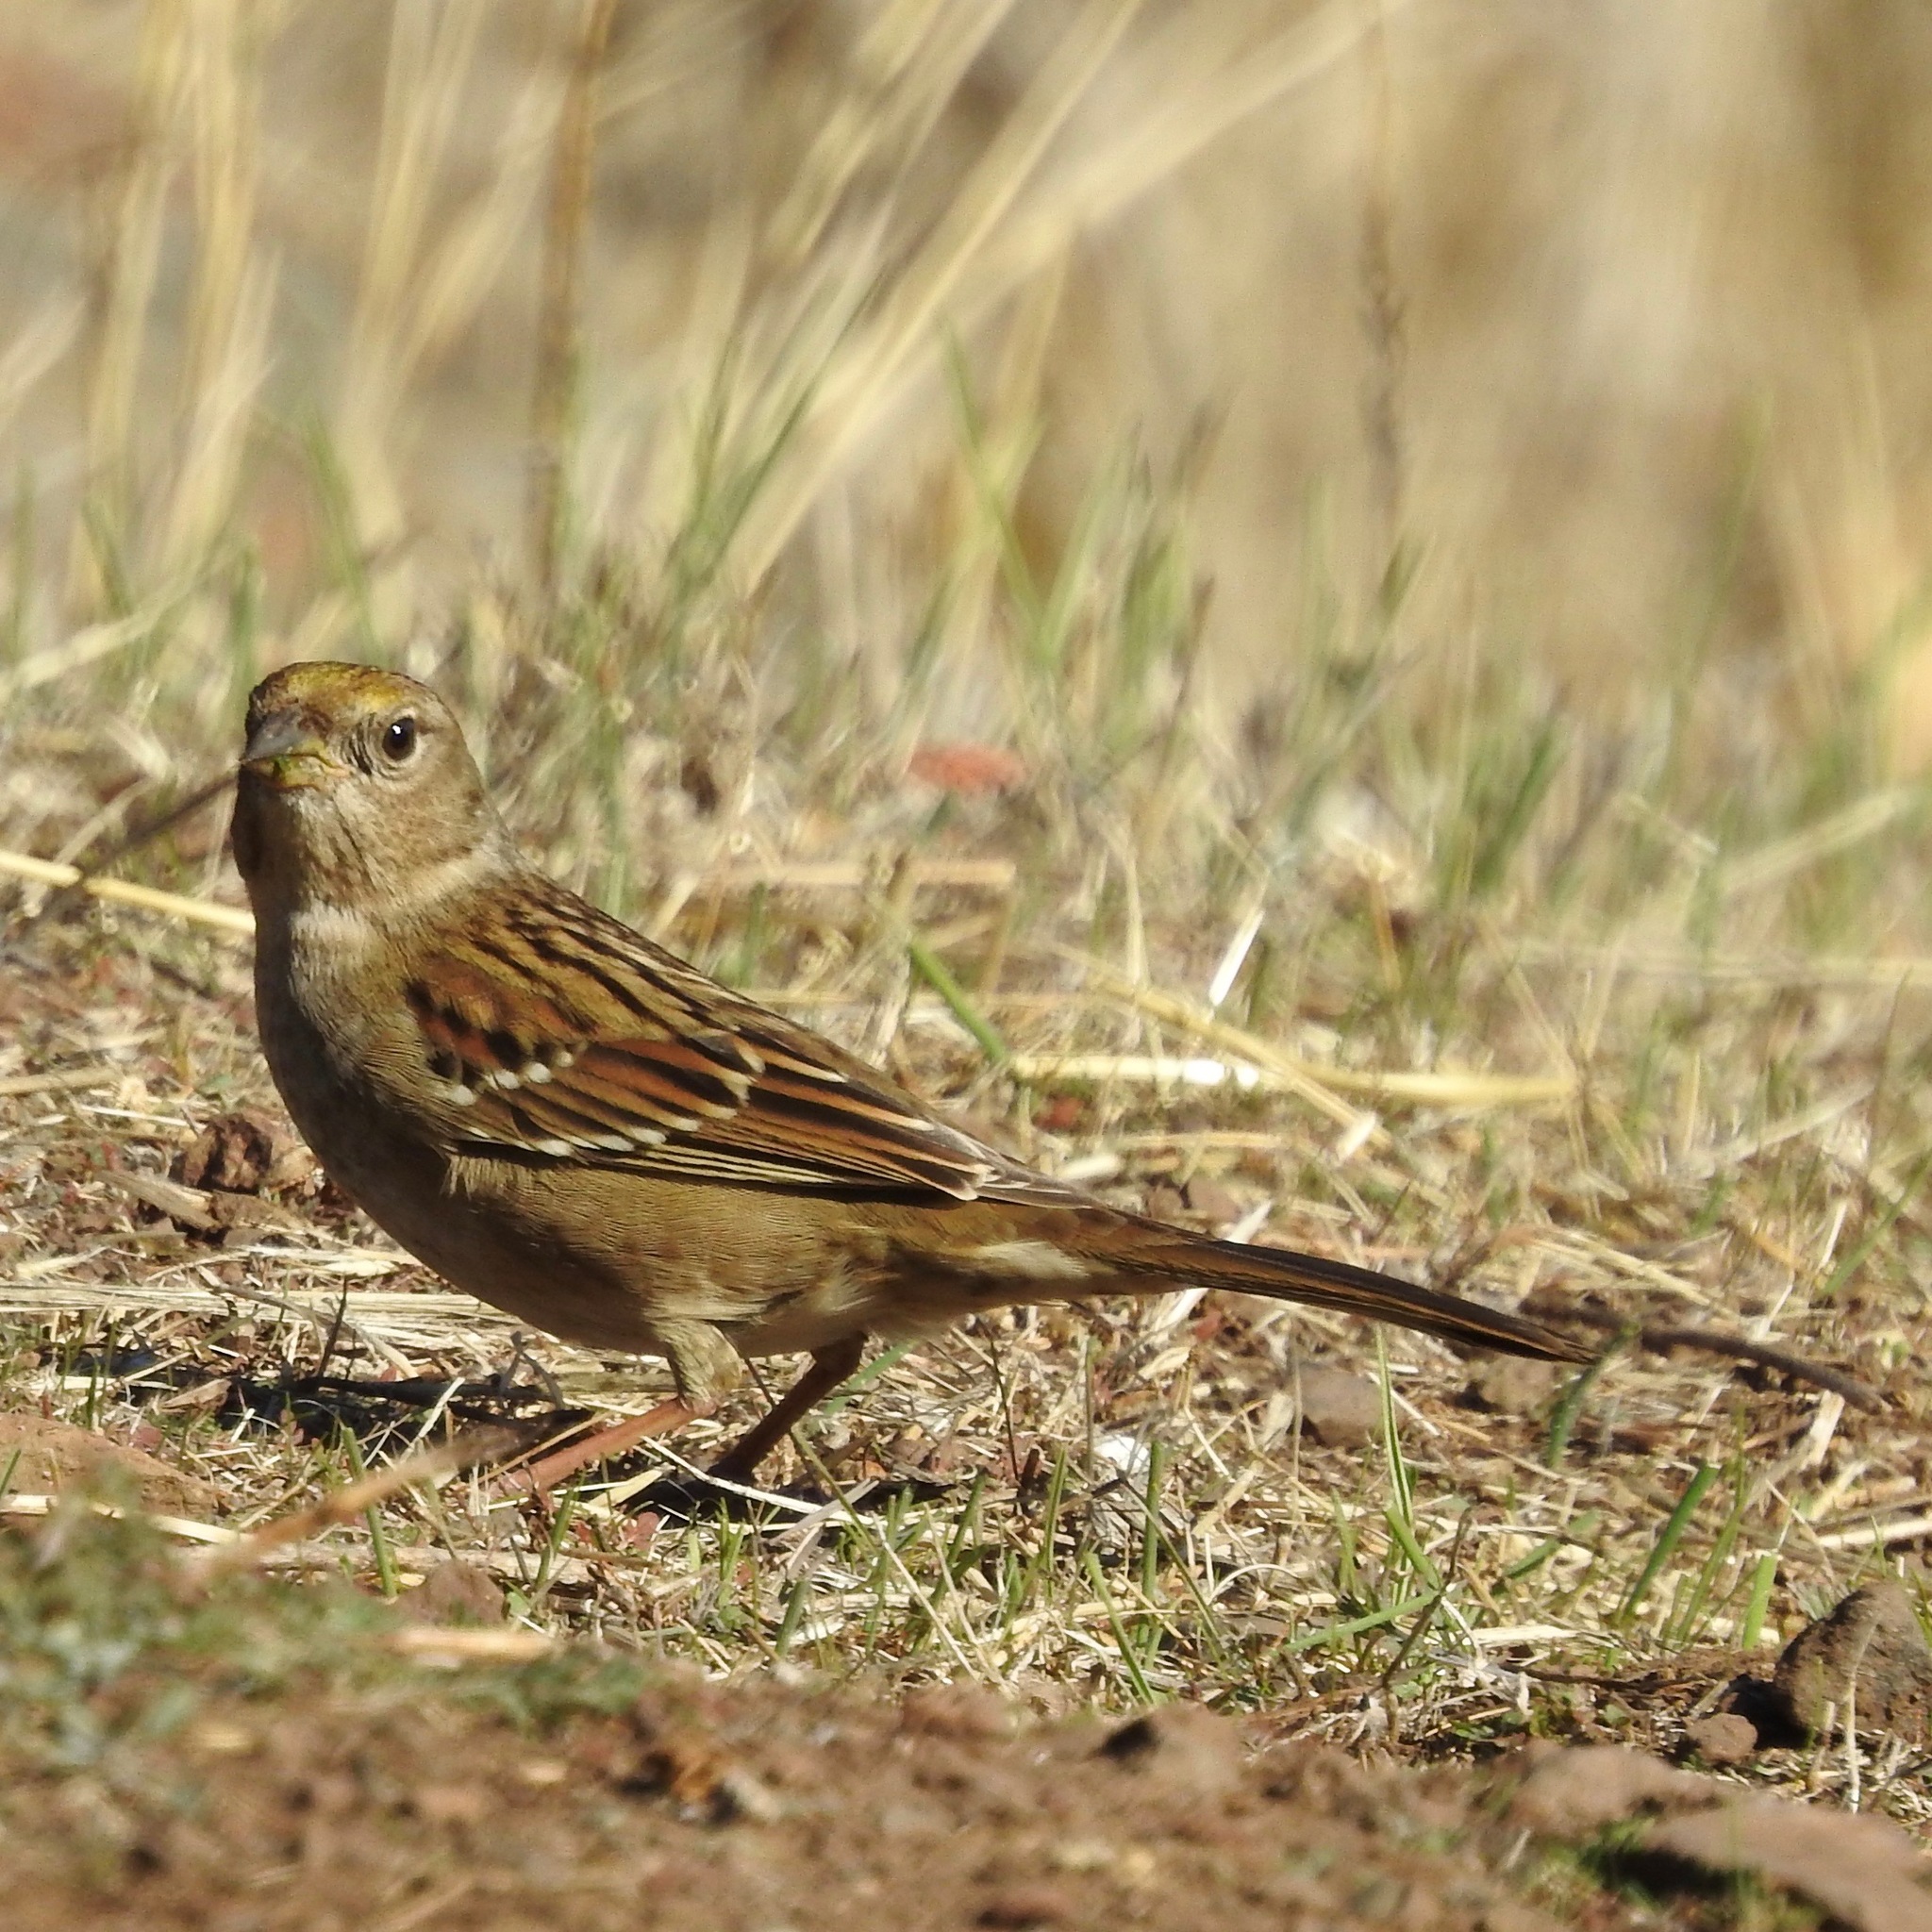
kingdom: Animalia
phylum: Chordata
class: Aves
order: Passeriformes
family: Passerellidae
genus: Zonotrichia
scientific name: Zonotrichia atricapilla
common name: Golden-crowned sparrow
